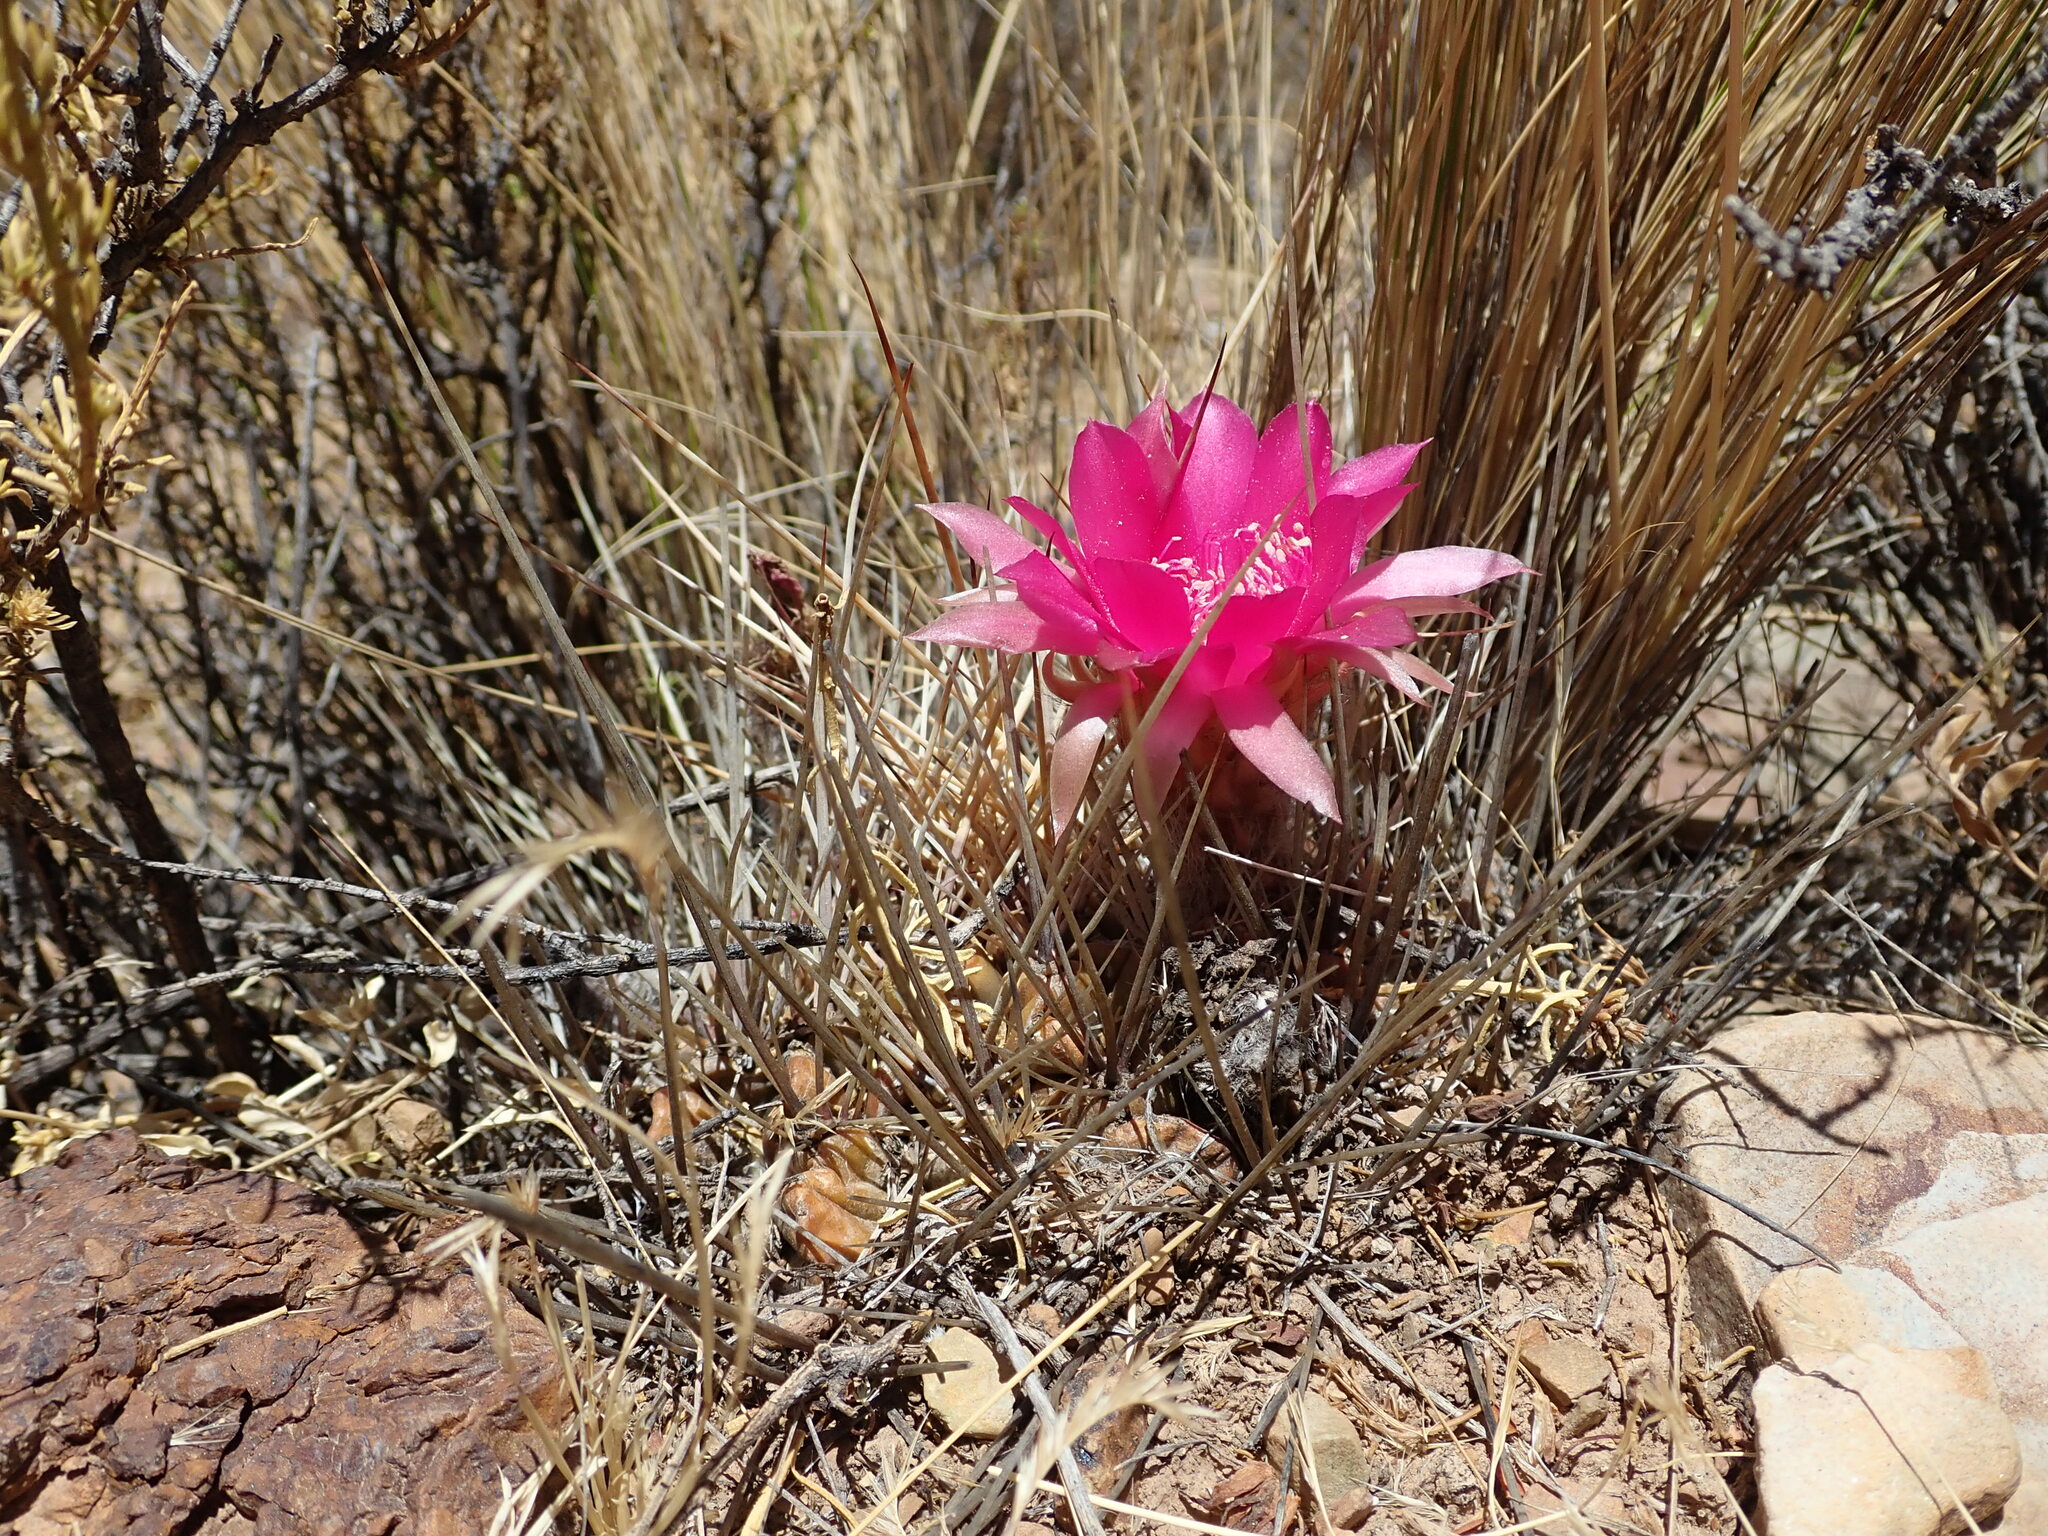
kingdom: Plantae
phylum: Tracheophyta
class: Magnoliopsida
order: Caryophyllales
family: Cactaceae
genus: Lobivia
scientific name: Lobivia ferox
